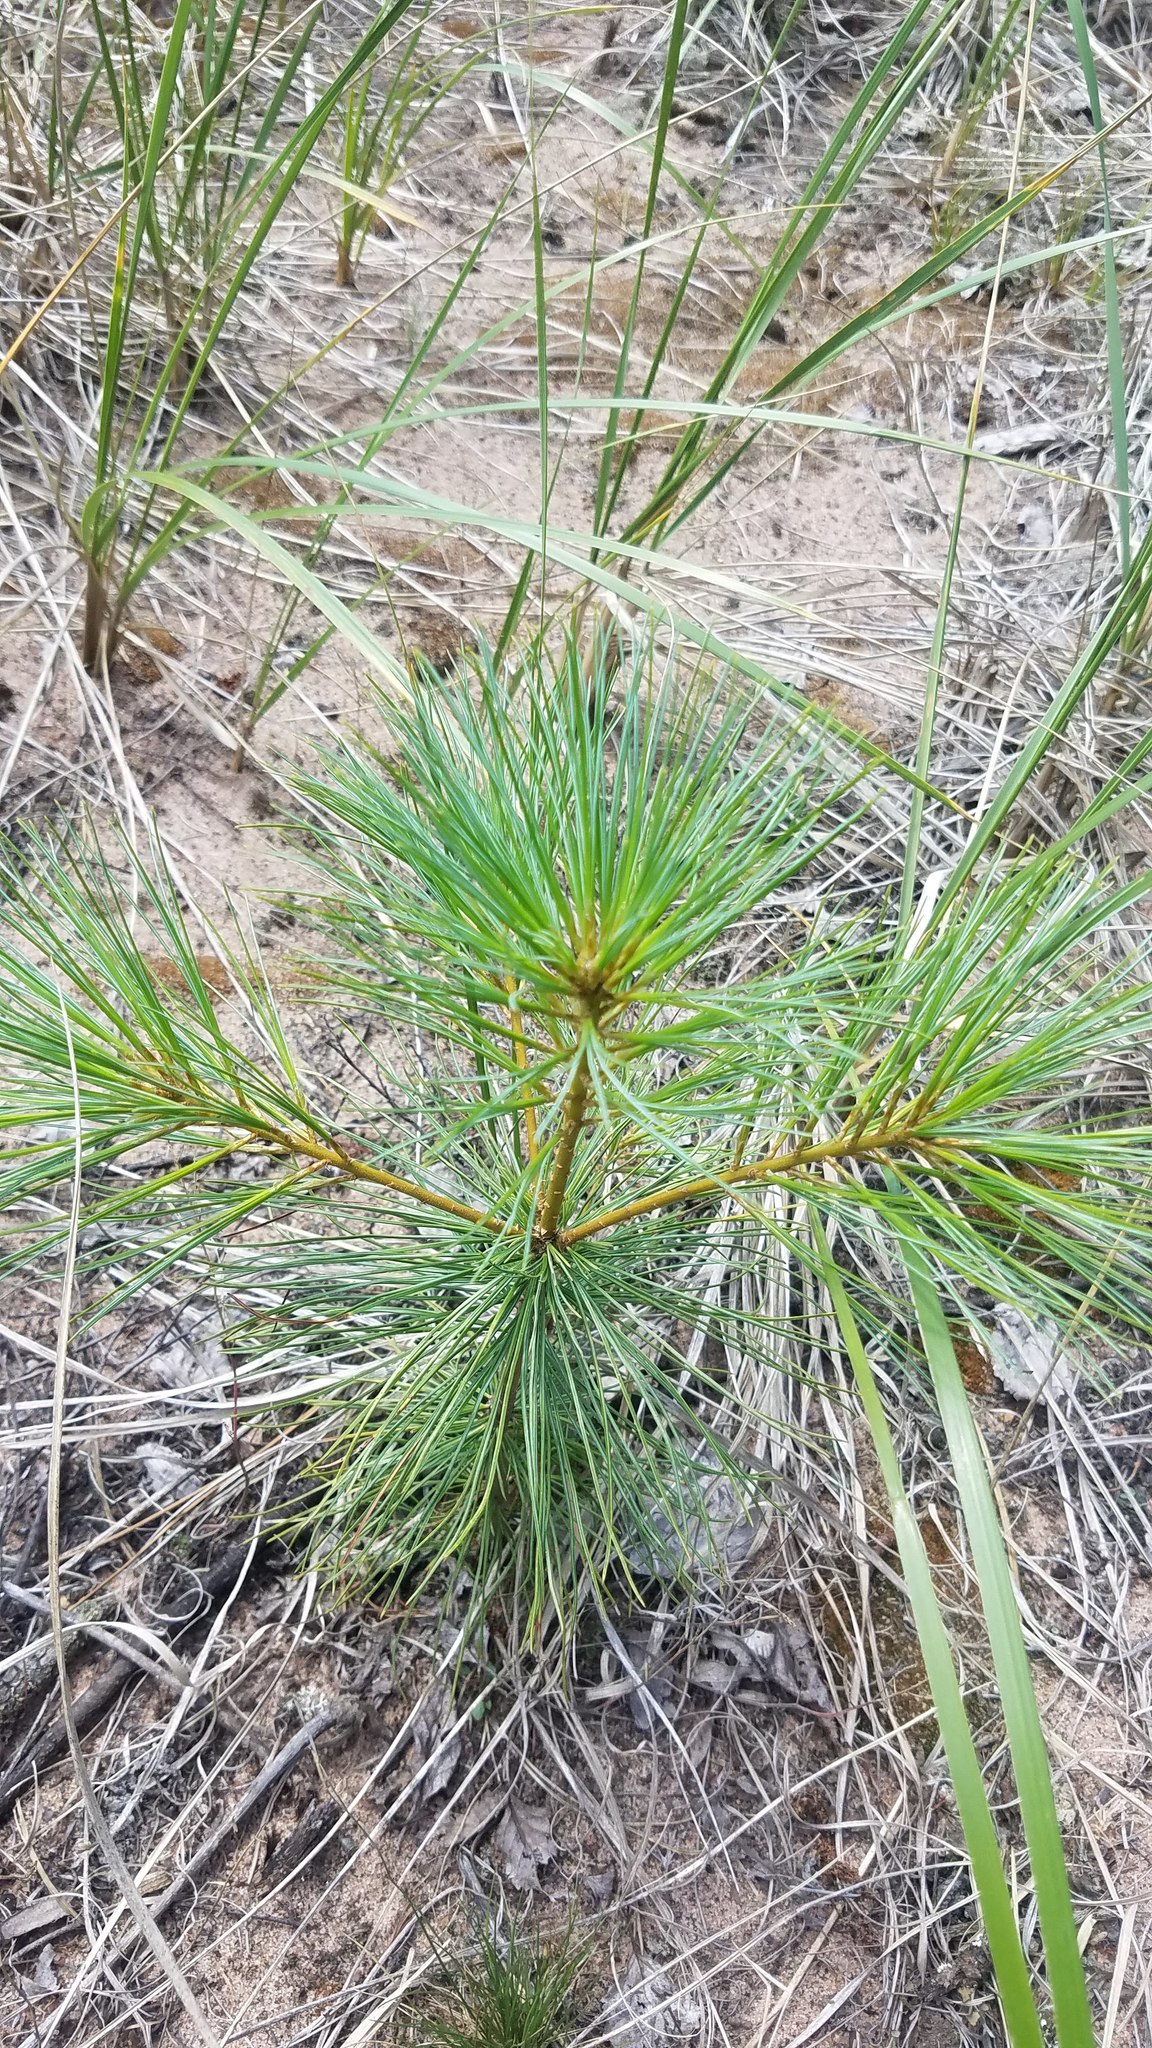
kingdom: Plantae
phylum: Tracheophyta
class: Pinopsida
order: Pinales
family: Pinaceae
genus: Pinus
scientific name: Pinus strobus
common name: Weymouth pine
